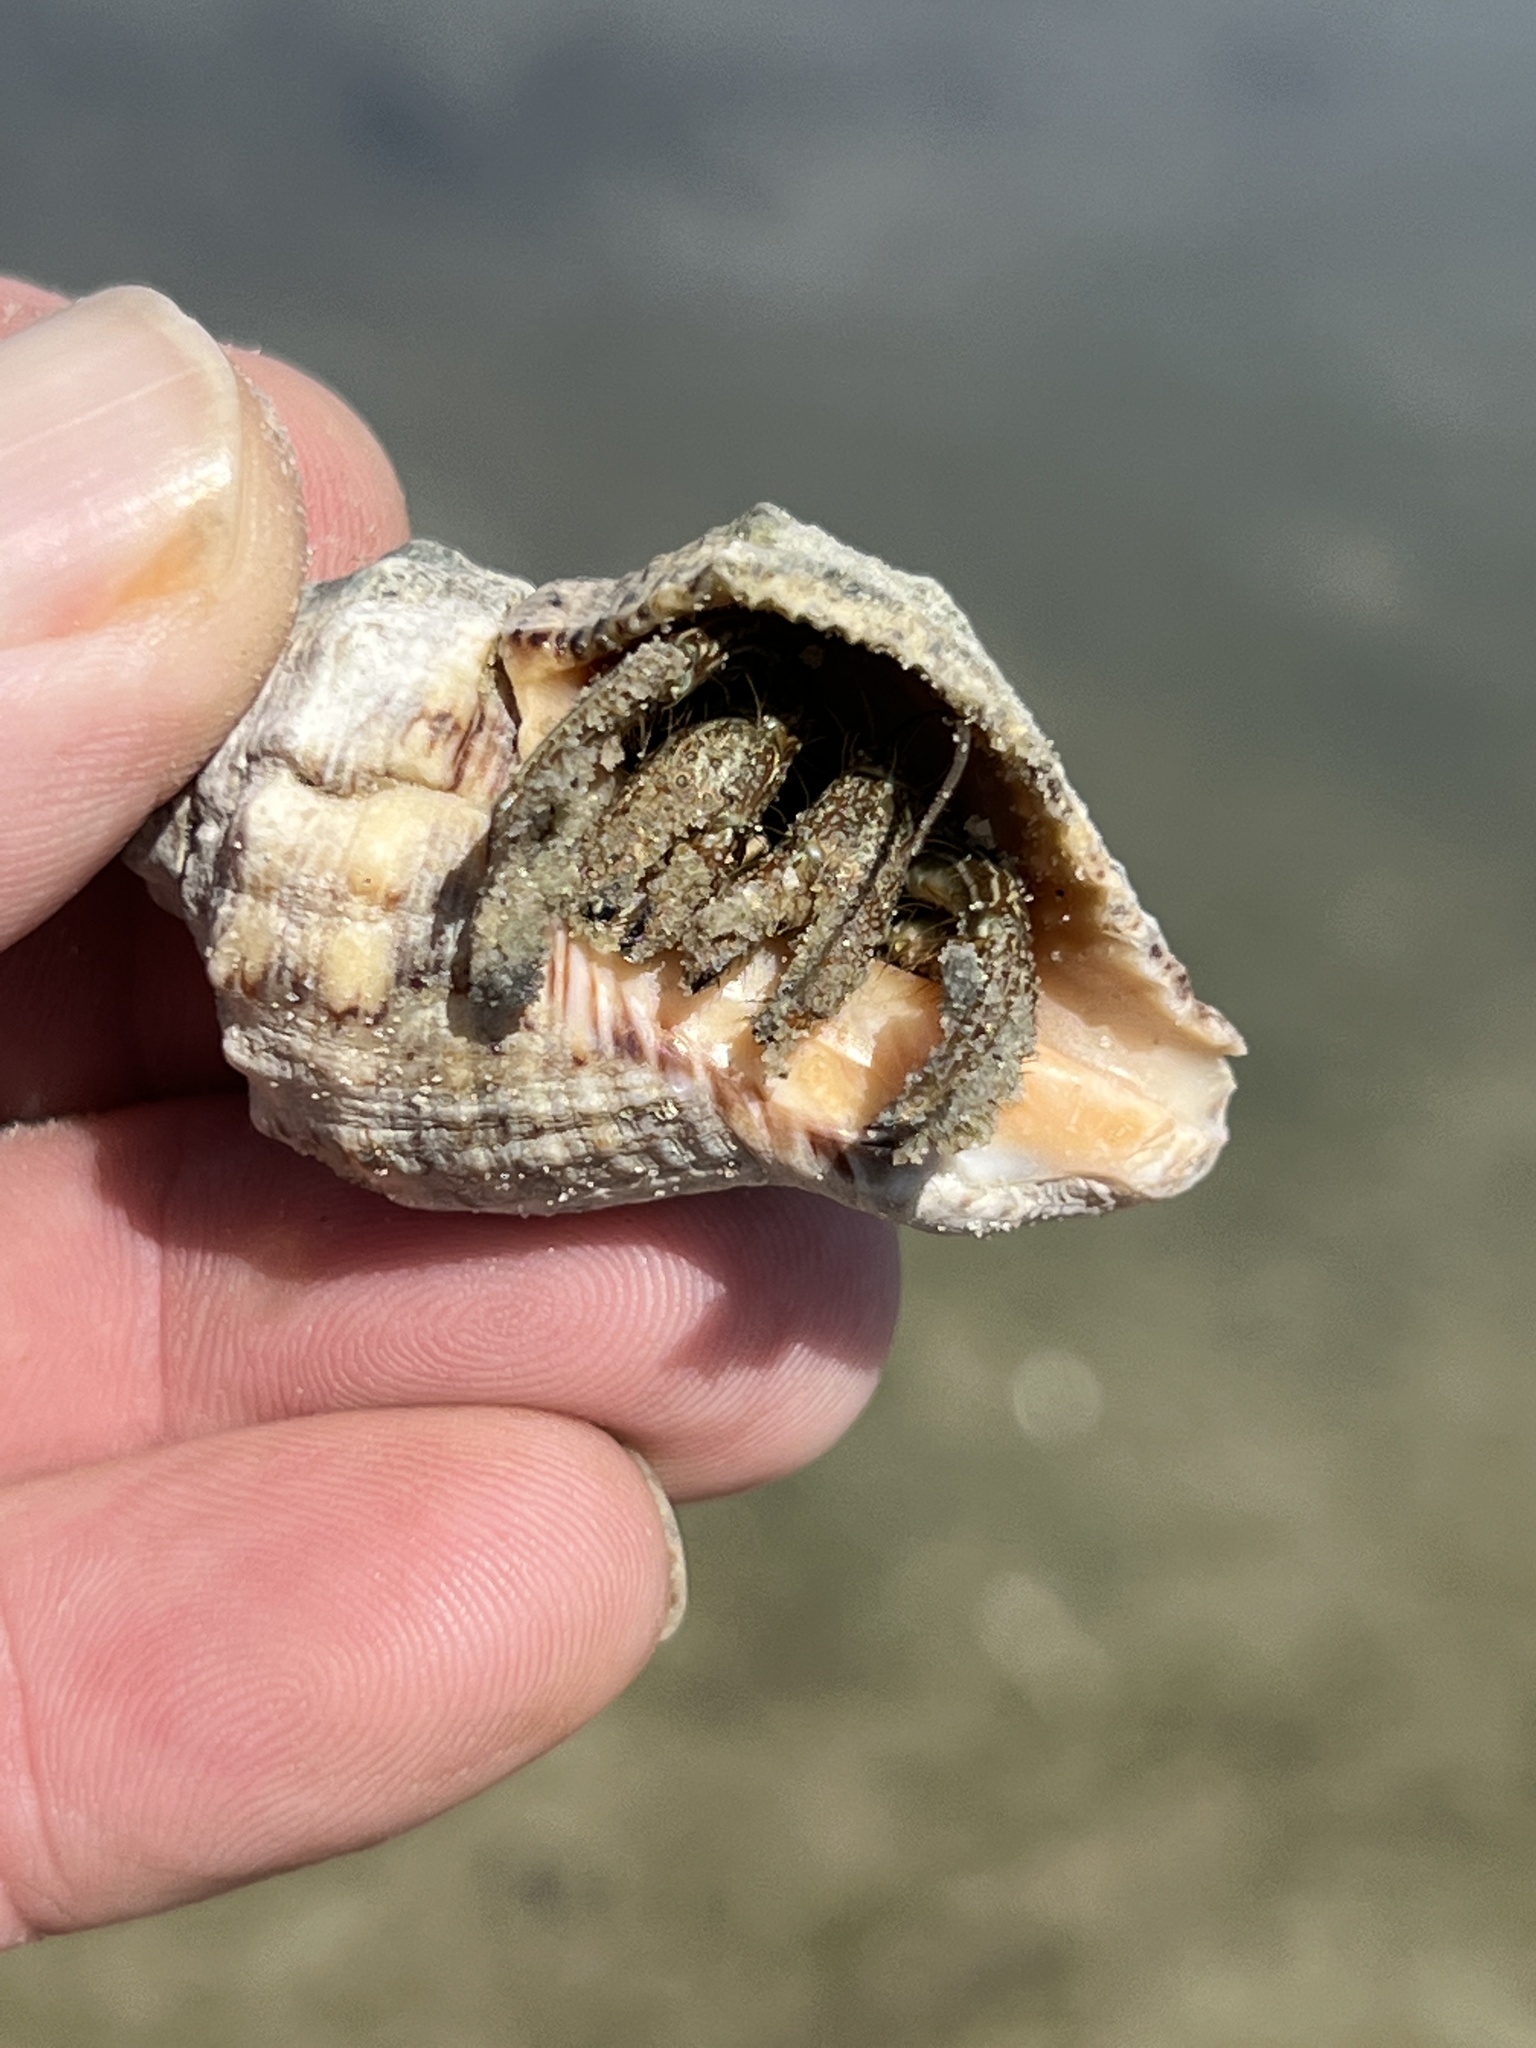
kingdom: Animalia
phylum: Arthropoda
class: Malacostraca
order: Decapoda
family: Diogenidae
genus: Clibanarius
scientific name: Clibanarius vittatus
